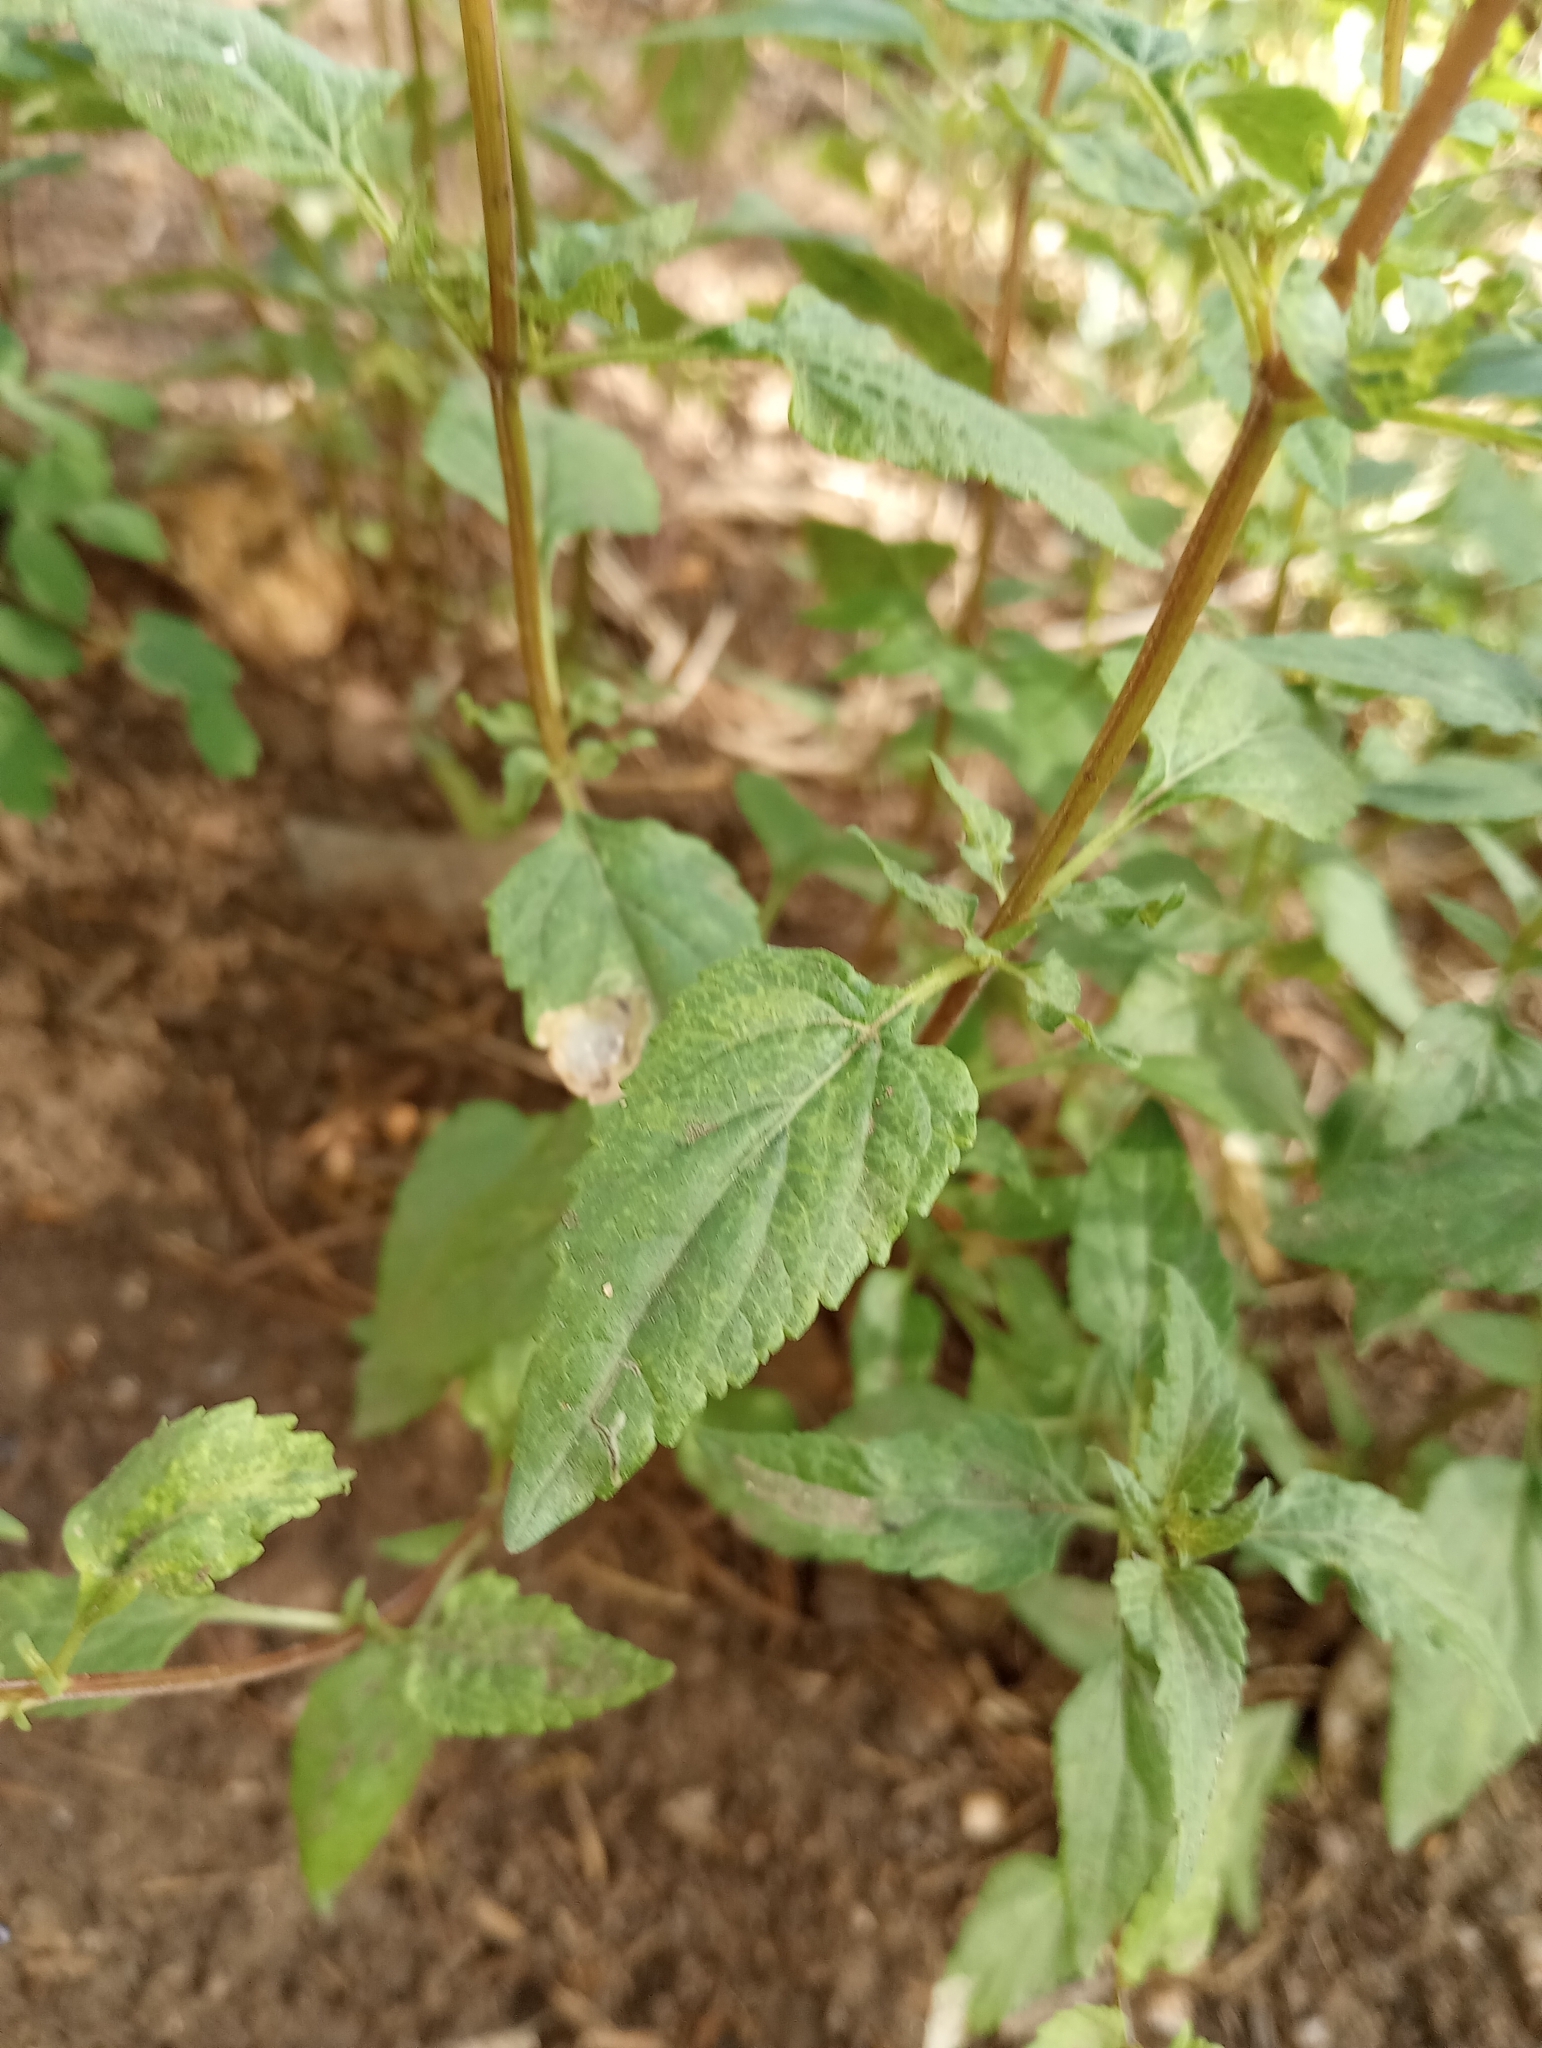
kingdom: Plantae
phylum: Tracheophyta
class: Magnoliopsida
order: Lamiales
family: Lamiaceae
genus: Salvia
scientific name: Salvia arizonica
